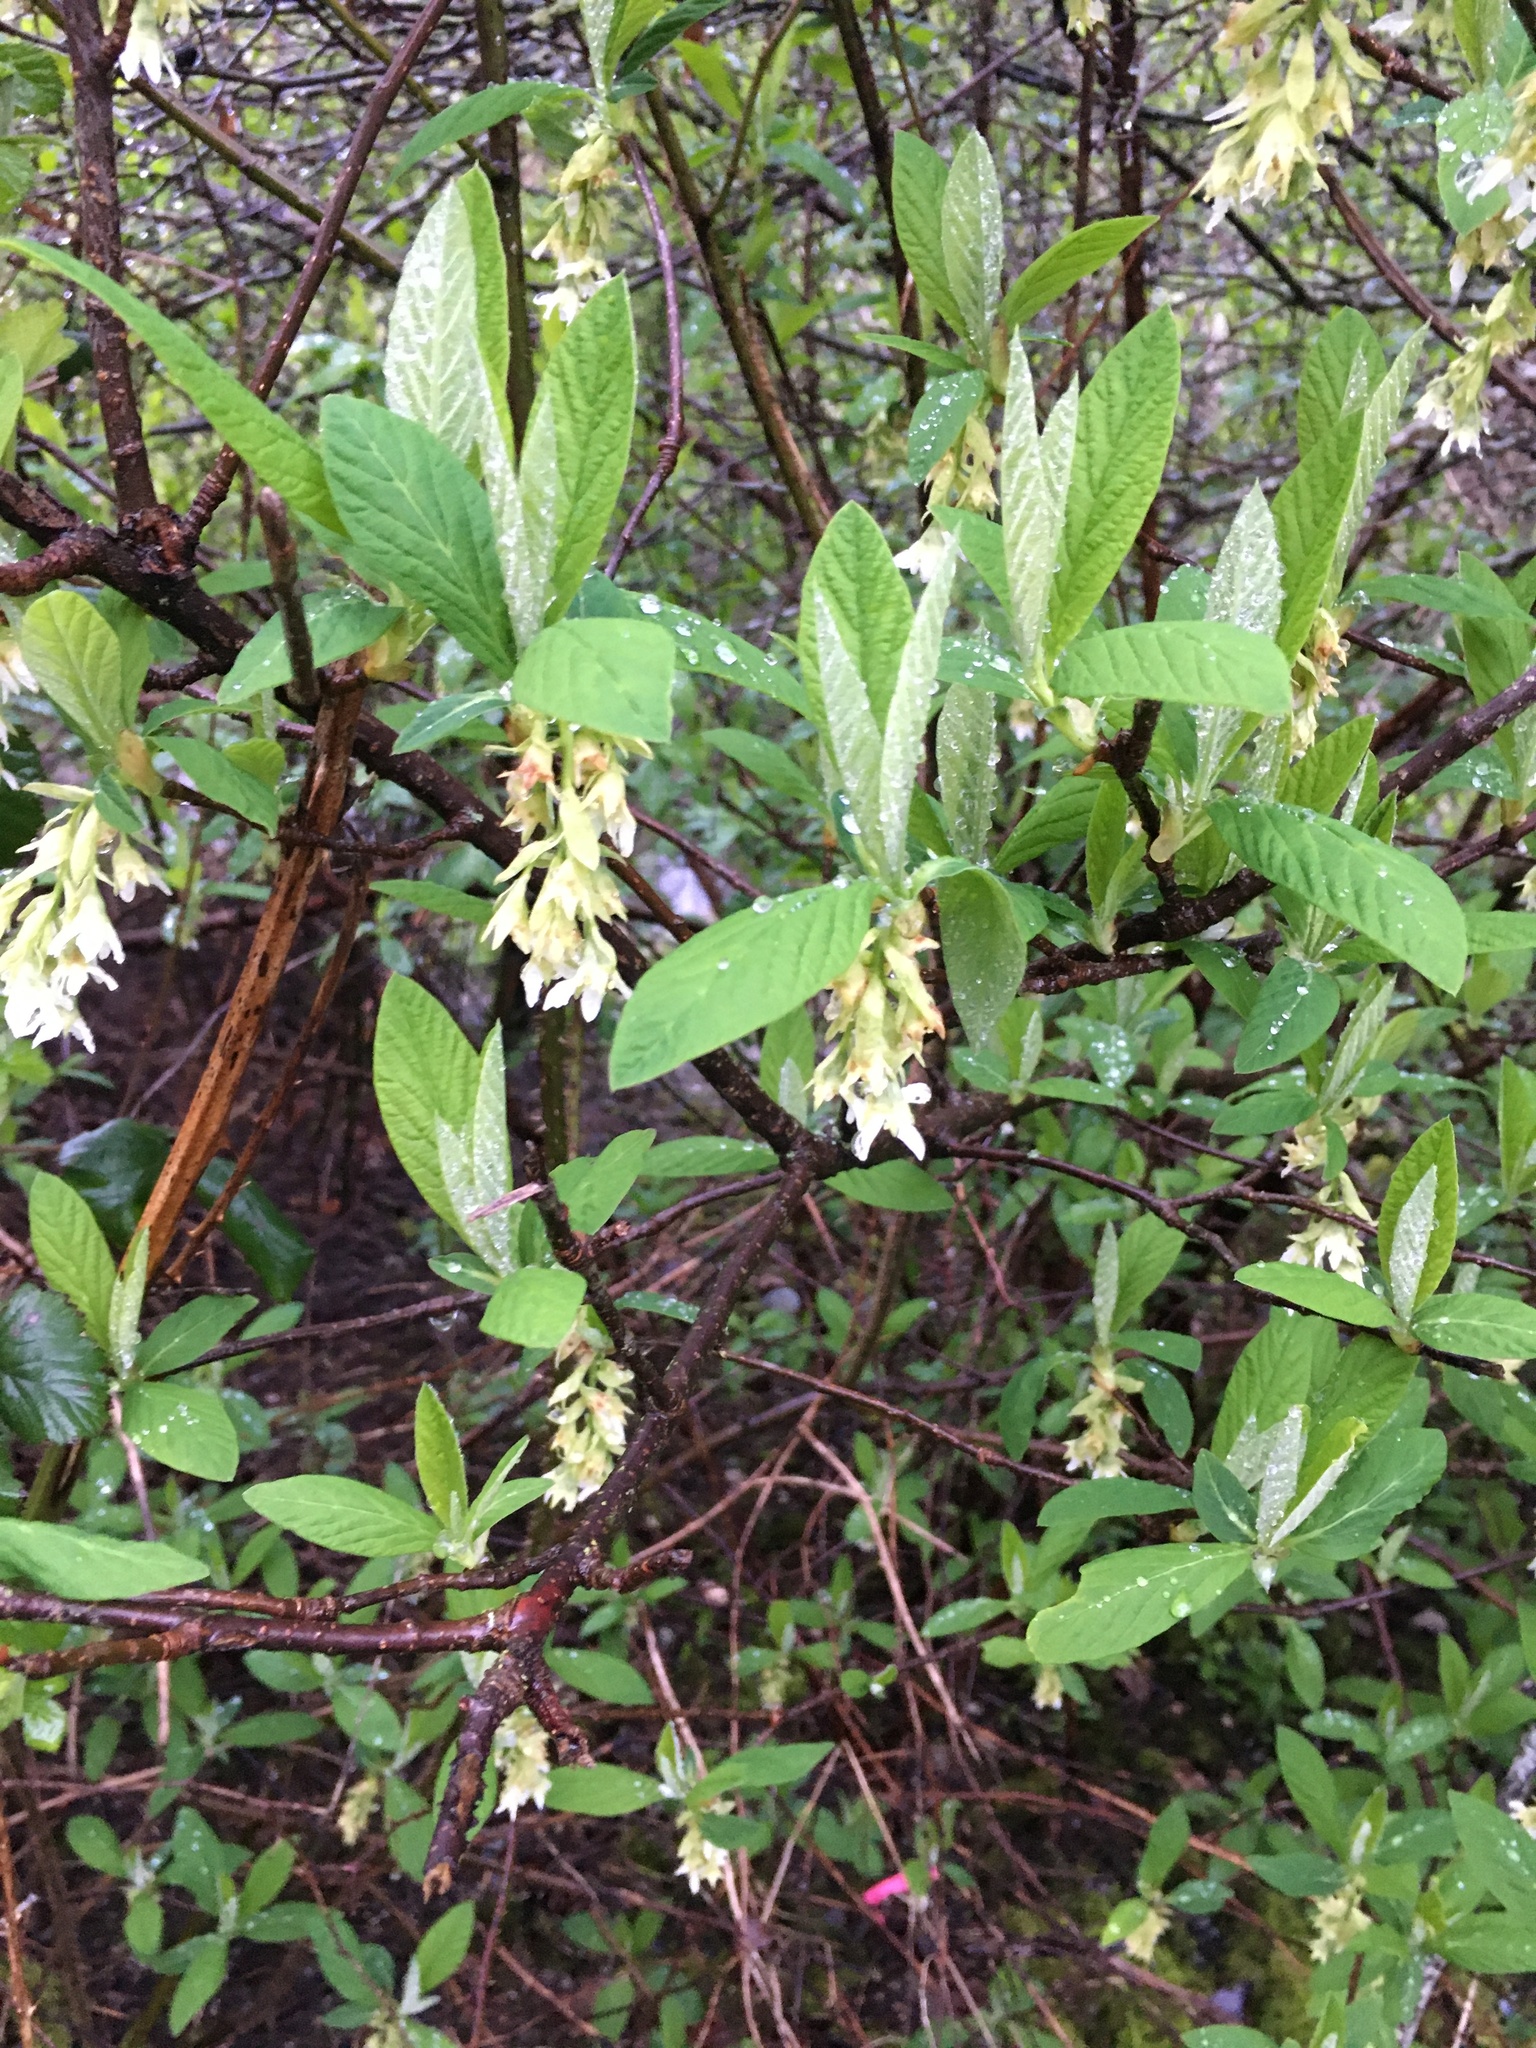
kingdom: Plantae
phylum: Tracheophyta
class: Magnoliopsida
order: Rosales
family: Rosaceae
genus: Oemleria
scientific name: Oemleria cerasiformis
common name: Osoberry
